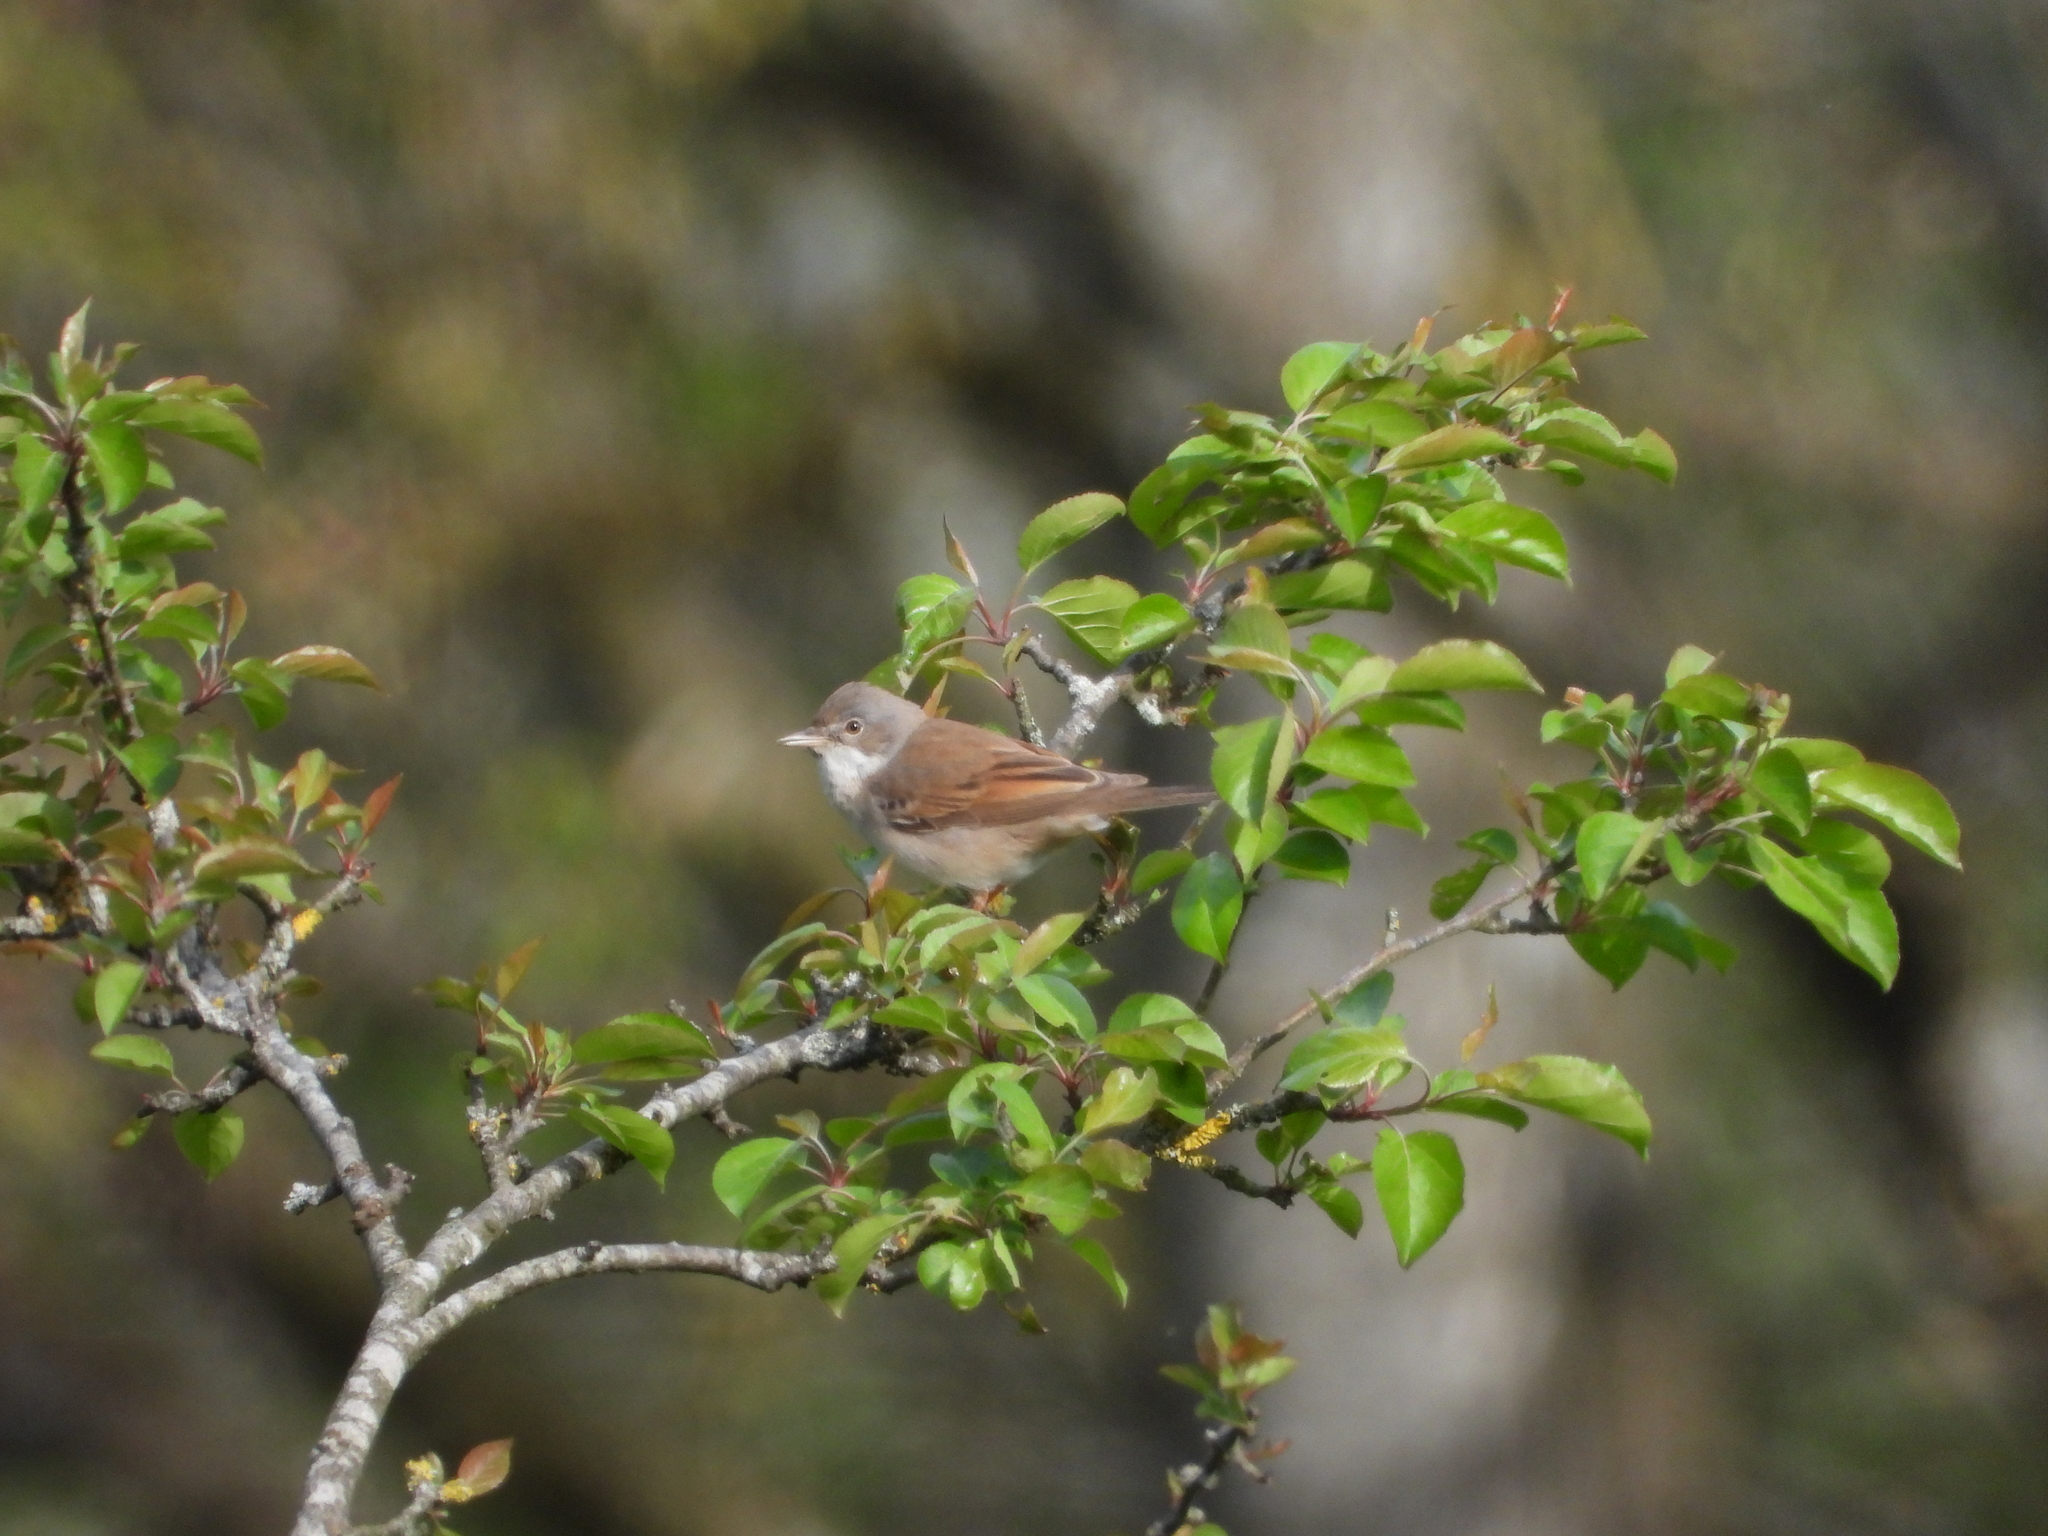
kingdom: Animalia
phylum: Chordata
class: Aves
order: Passeriformes
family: Sylviidae
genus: Sylvia
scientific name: Sylvia communis
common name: Common whitethroat
